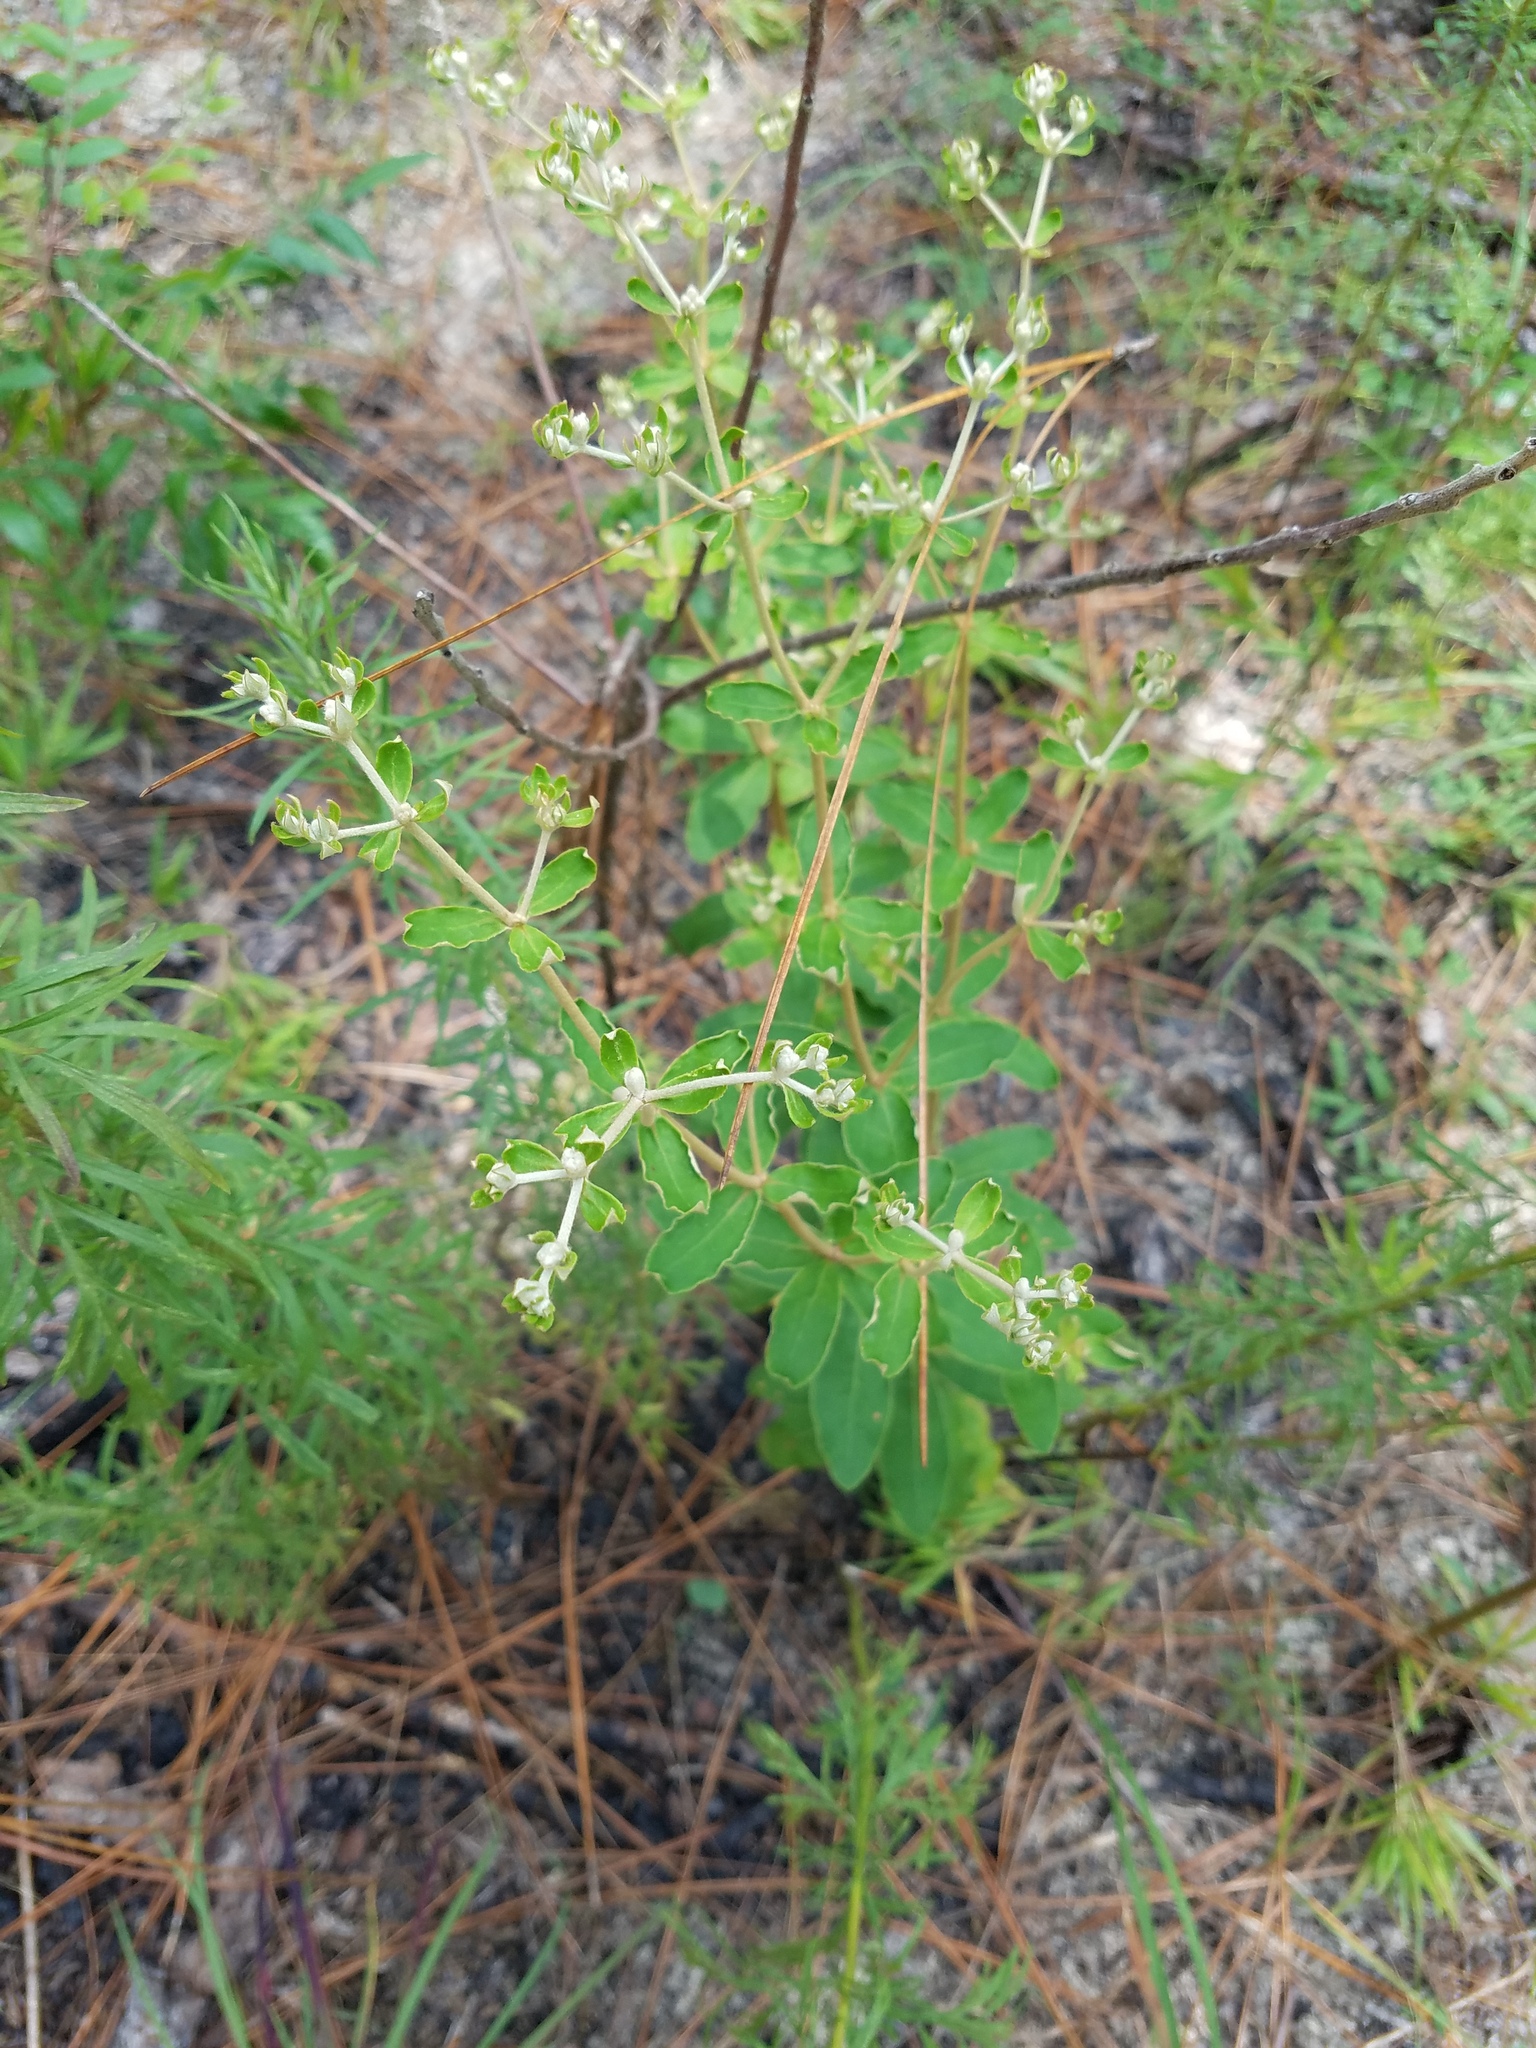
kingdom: Plantae
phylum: Tracheophyta
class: Magnoliopsida
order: Caryophyllales
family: Polygonaceae
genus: Eriogonum
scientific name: Eriogonum tomentosum
